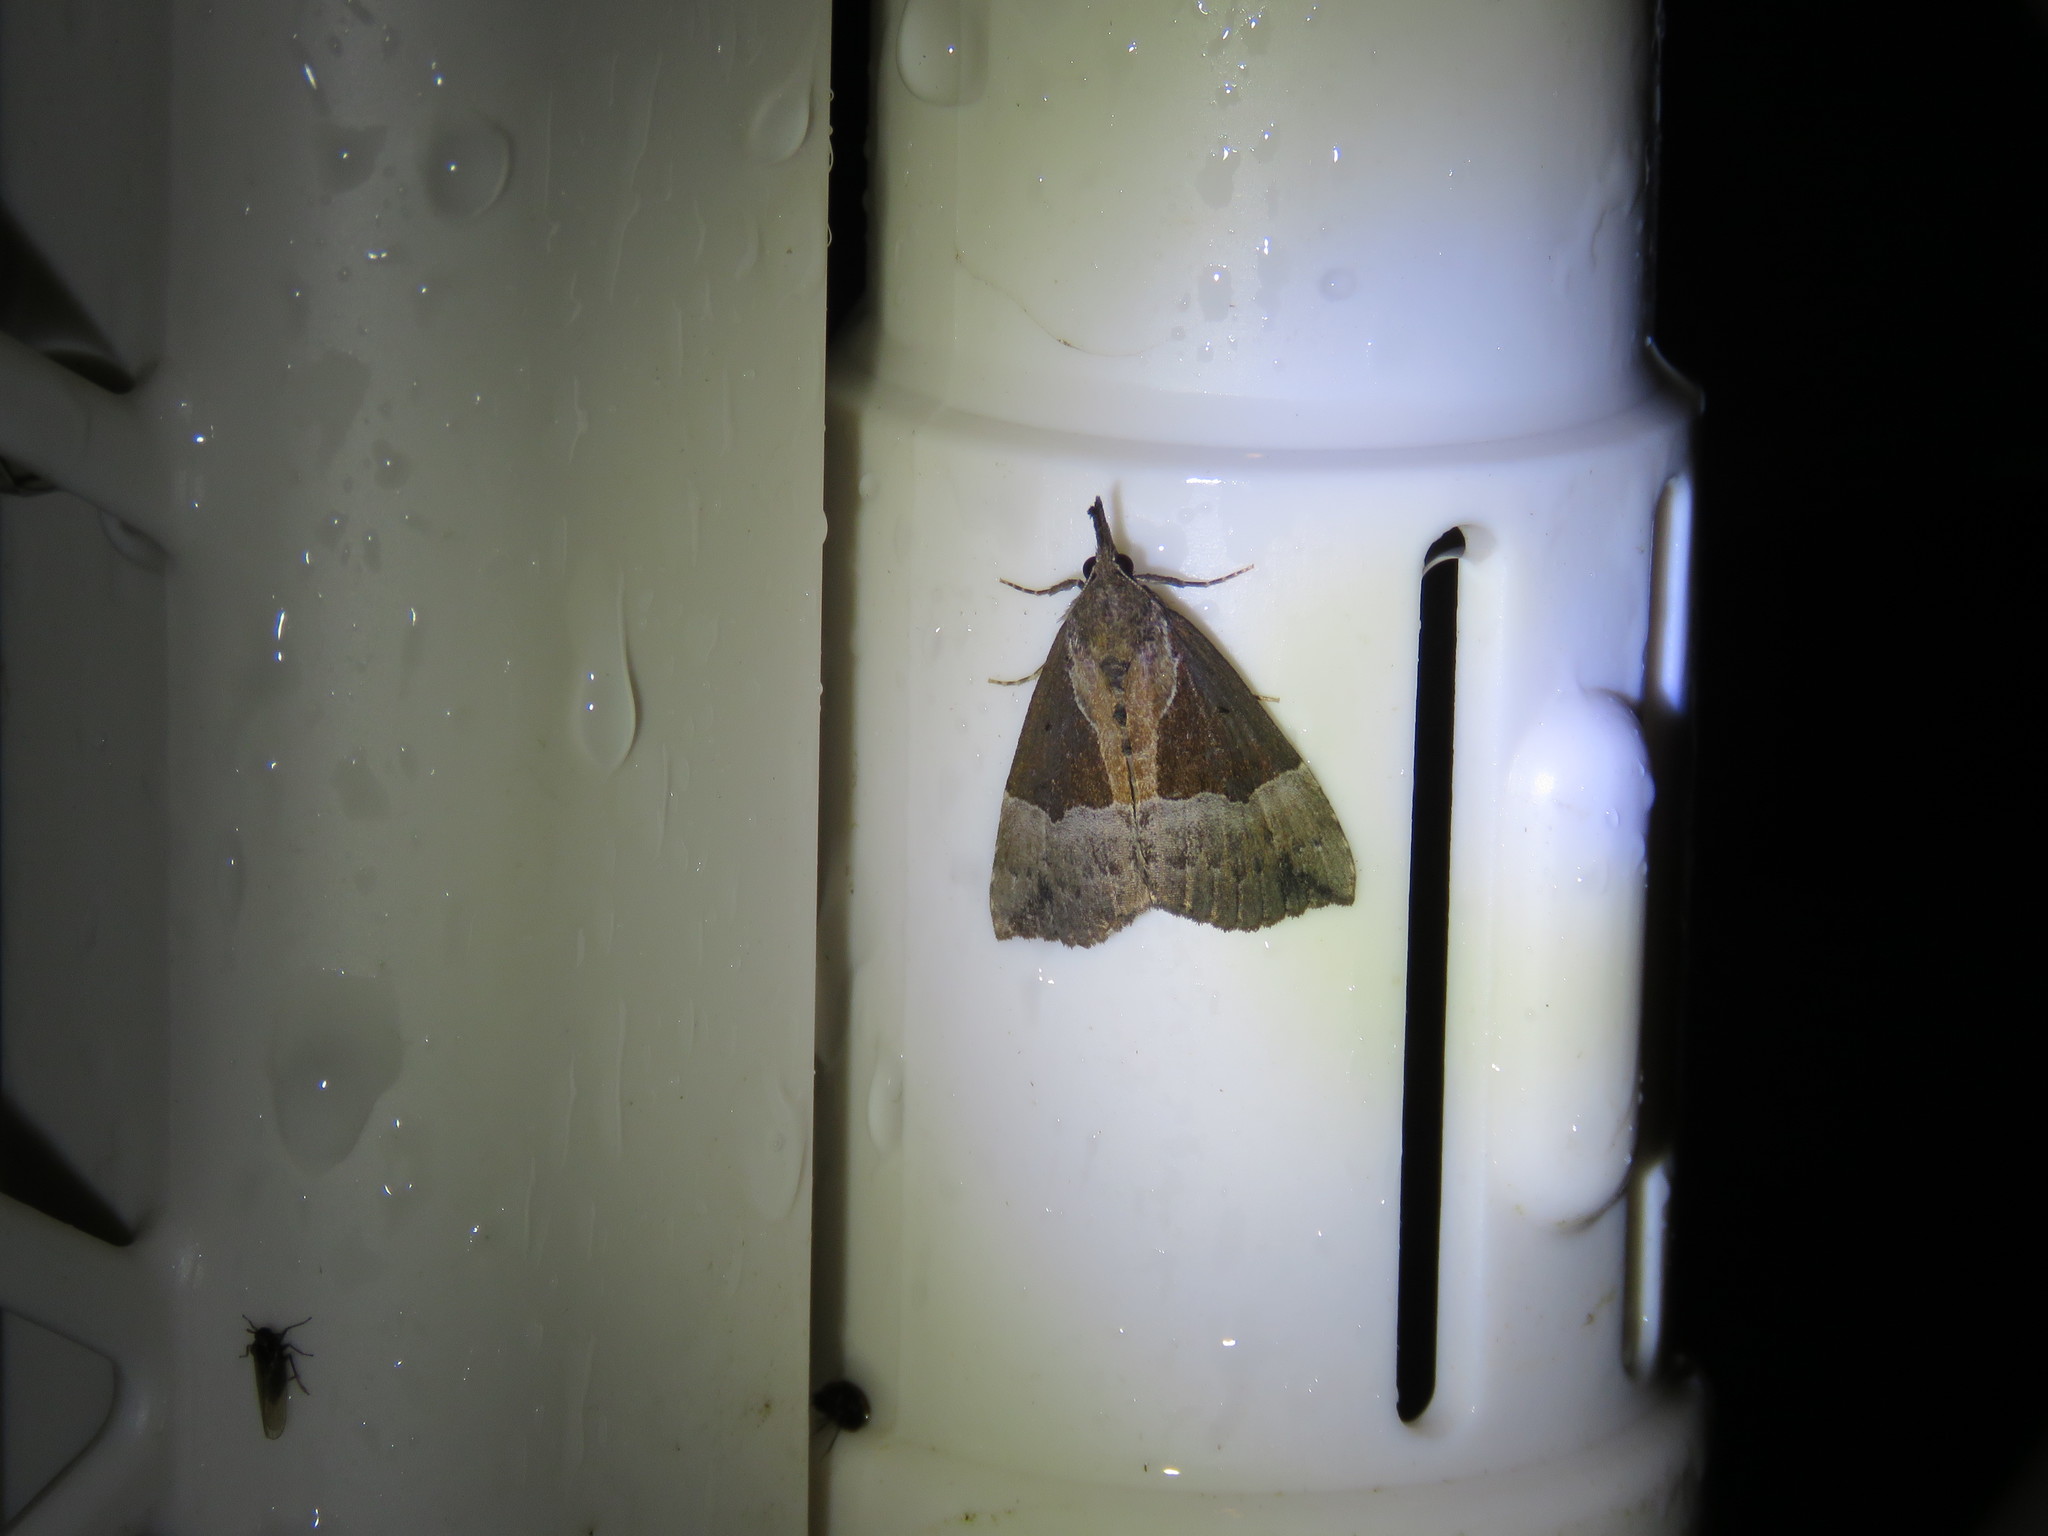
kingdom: Animalia
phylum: Arthropoda
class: Insecta
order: Lepidoptera
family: Erebidae
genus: Hypena
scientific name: Hypena bijugalis
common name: Dimorphic bomolocha moth
